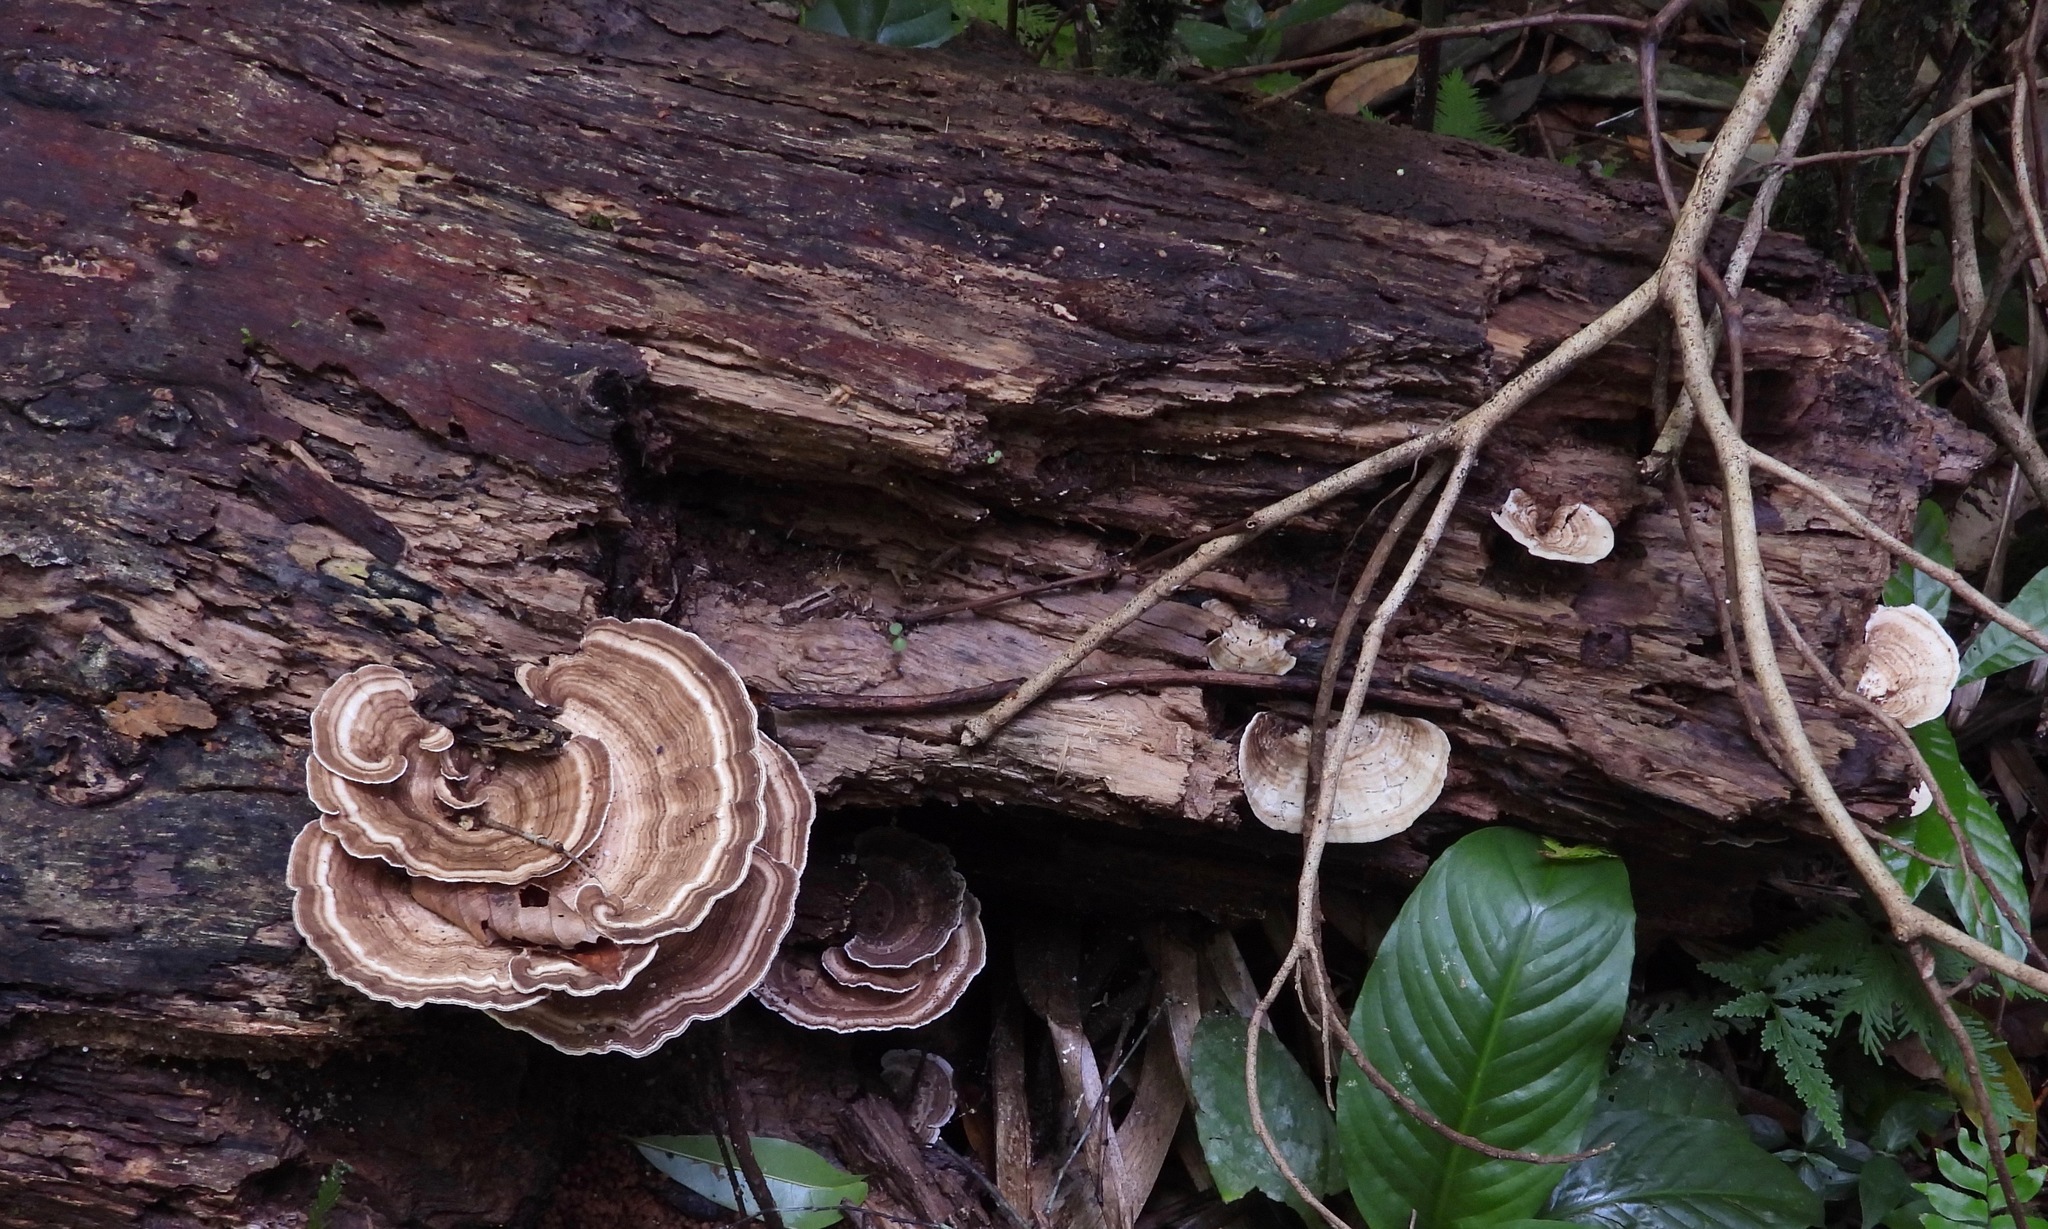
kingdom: Fungi
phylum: Basidiomycota
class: Agaricomycetes
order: Polyporales
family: Polyporaceae
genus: Trametes
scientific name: Trametes elegans
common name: White maze polypore
